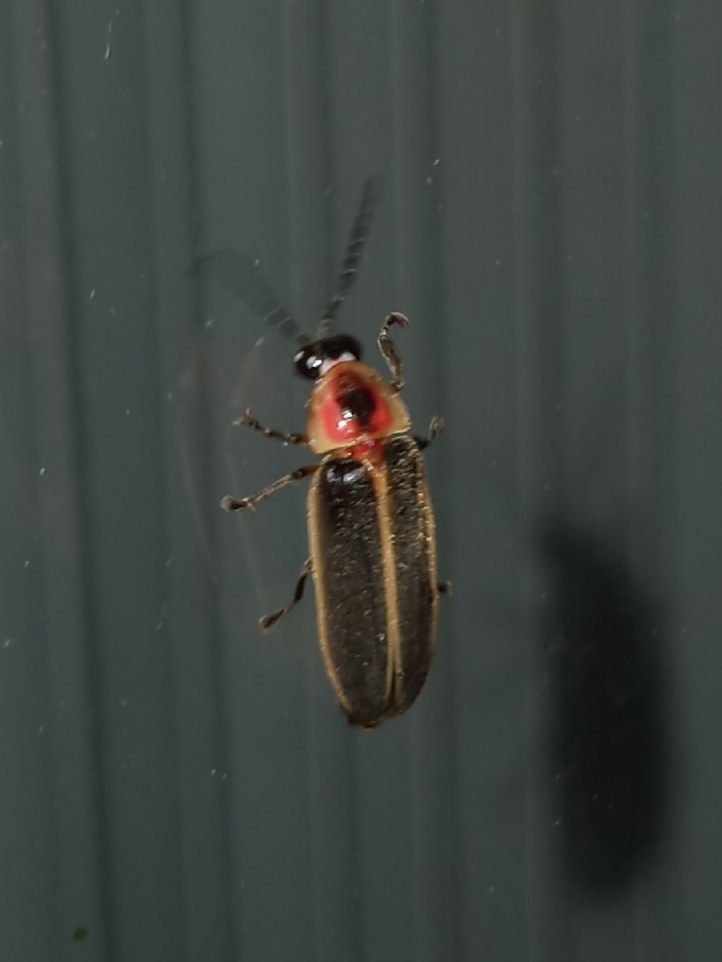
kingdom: Animalia
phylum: Arthropoda
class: Insecta
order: Coleoptera
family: Lampyridae
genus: Photinus
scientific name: Photinus pyralis
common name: Big dipper firefly
